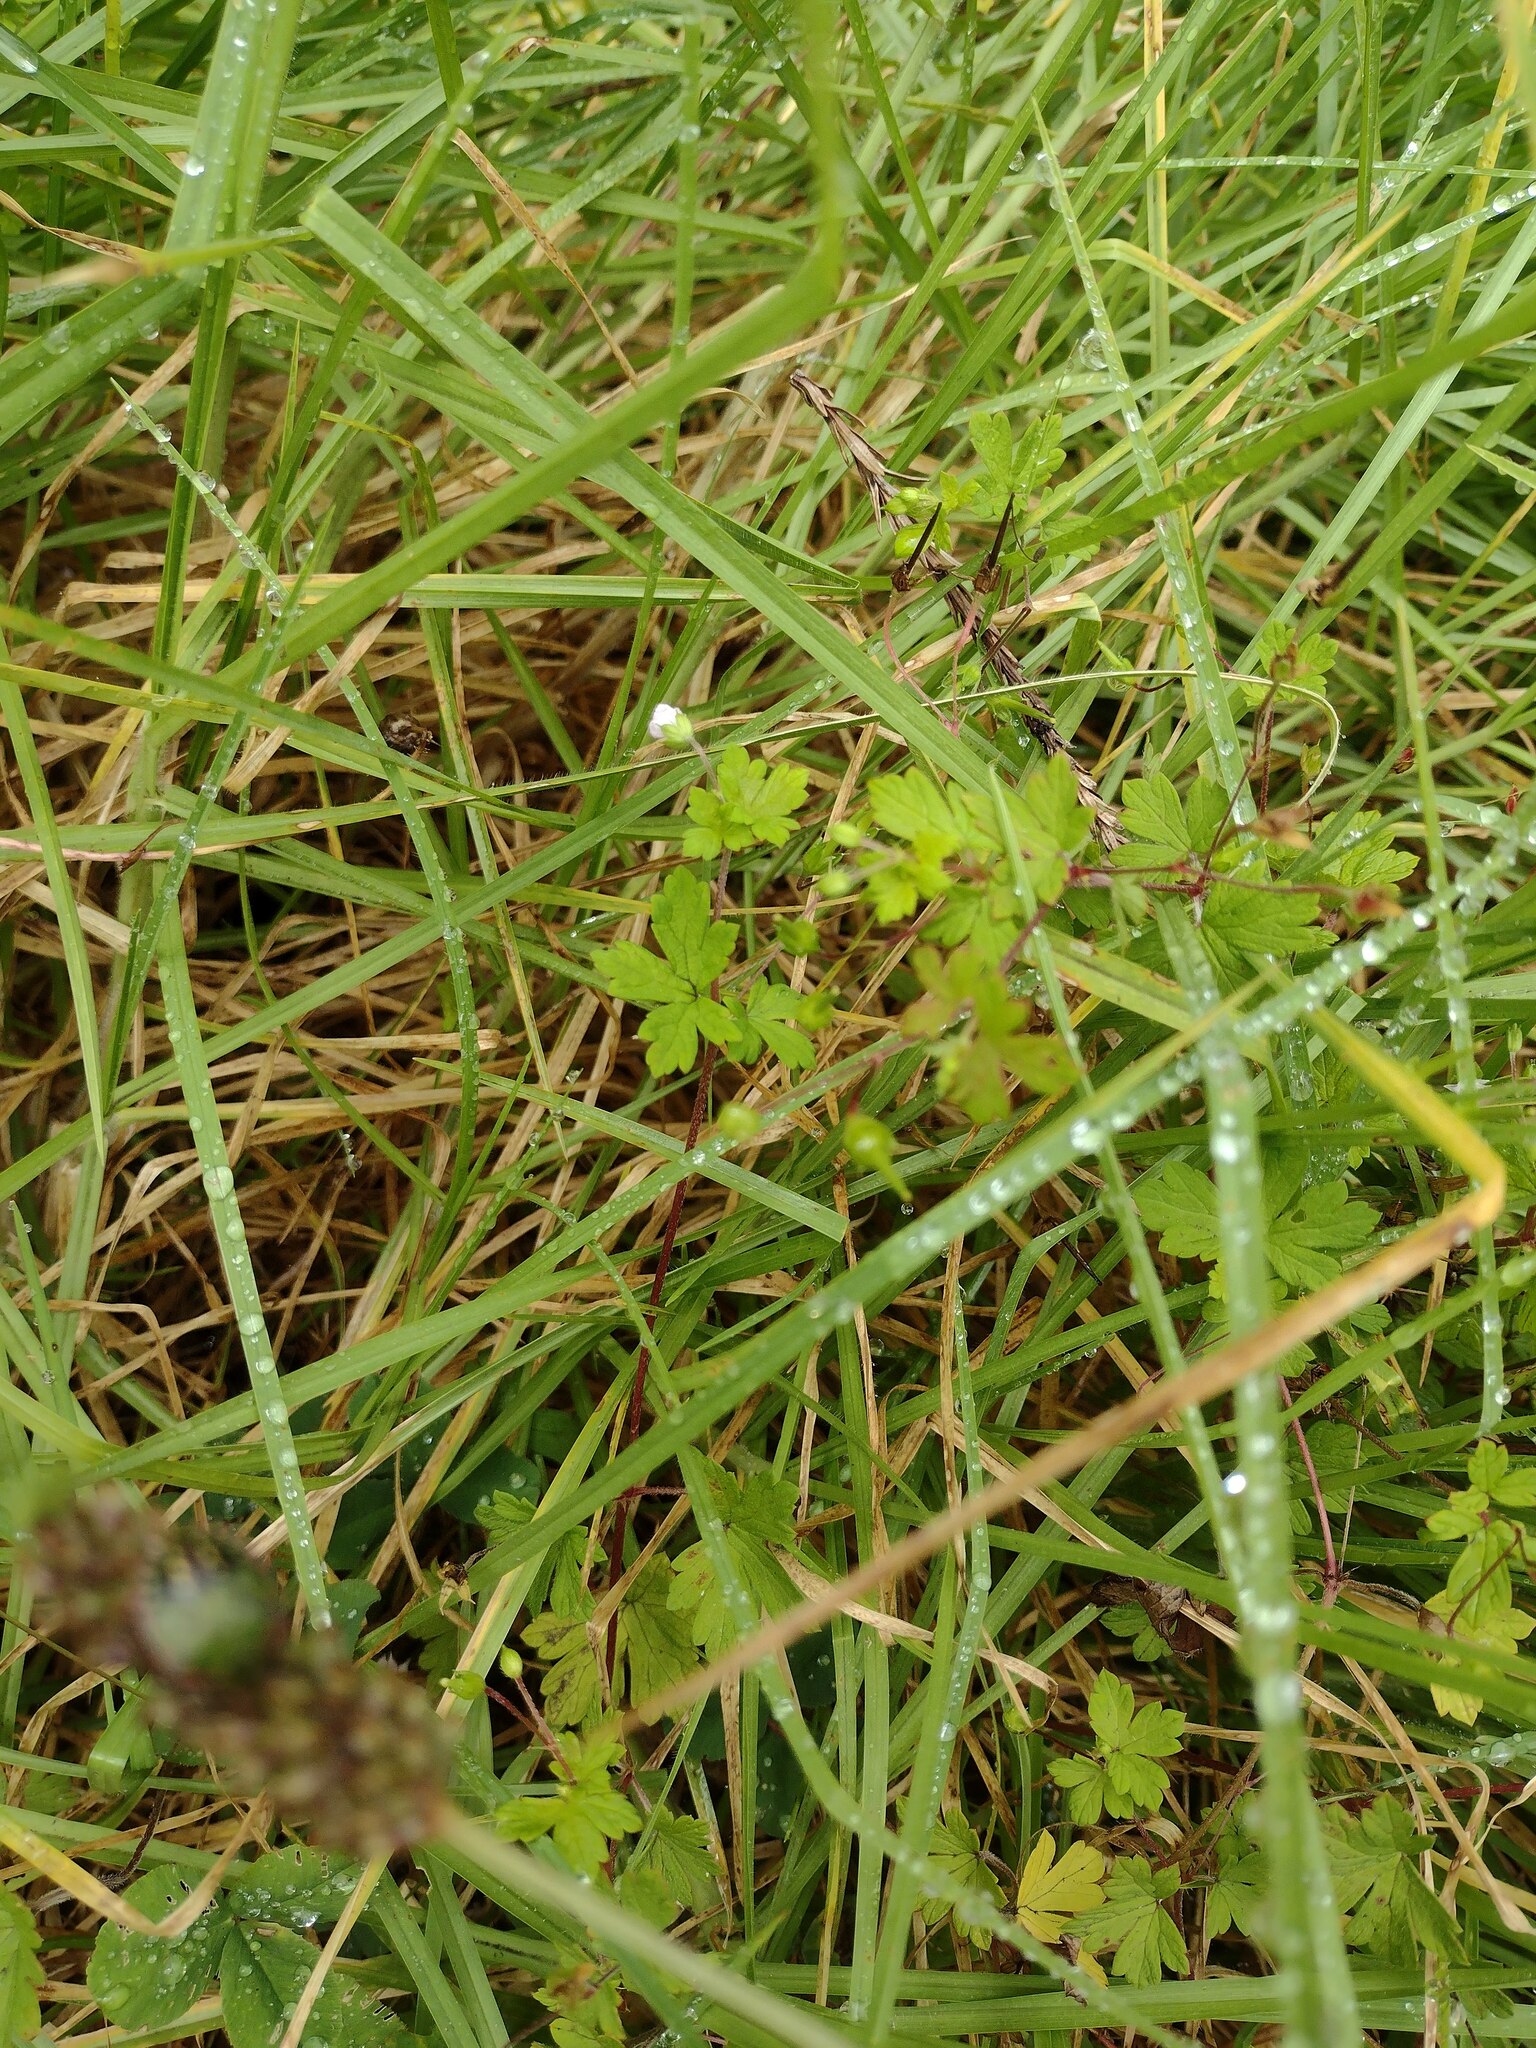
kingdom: Plantae
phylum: Tracheophyta
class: Magnoliopsida
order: Geraniales
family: Geraniaceae
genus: Geranium
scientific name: Geranium homeanum
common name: Australasian geranium
